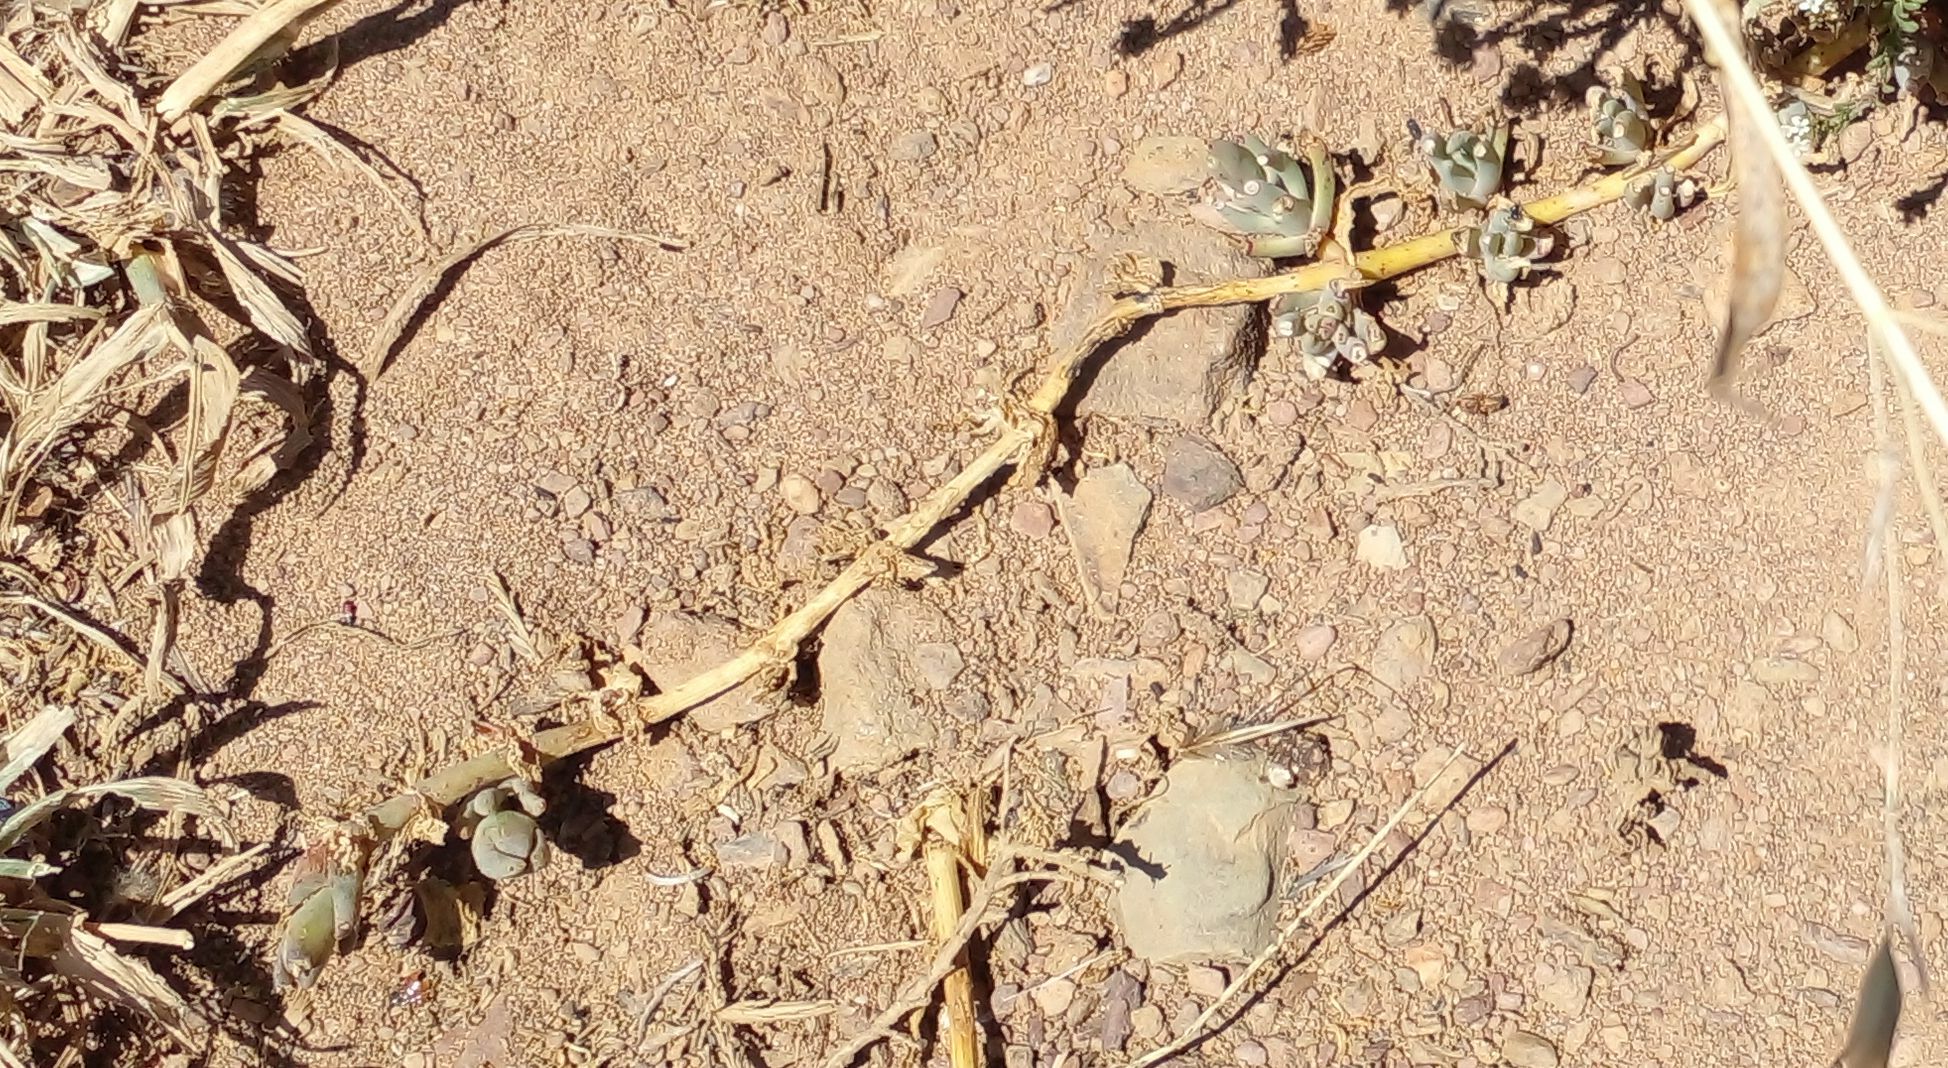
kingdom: Plantae
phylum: Tracheophyta
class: Magnoliopsida
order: Caryophyllales
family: Aizoaceae
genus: Drosanthemum
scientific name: Drosanthemum calycinum
